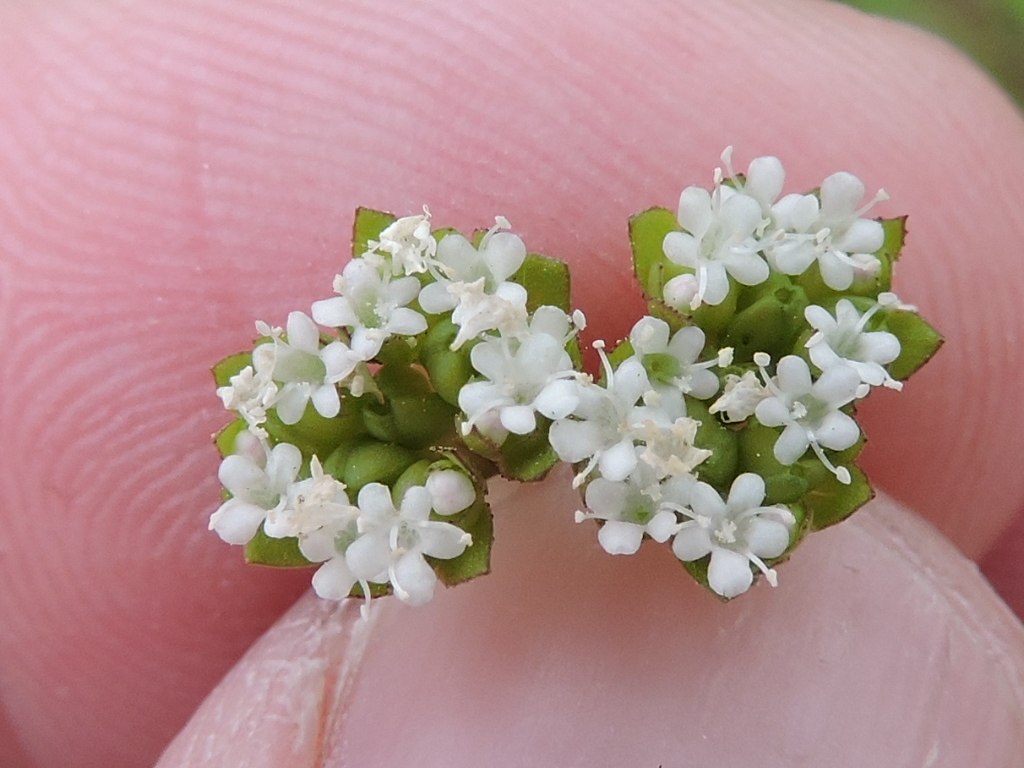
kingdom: Plantae
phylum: Tracheophyta
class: Magnoliopsida
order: Dipsacales
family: Caprifoliaceae
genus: Valerianella
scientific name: Valerianella radiata
